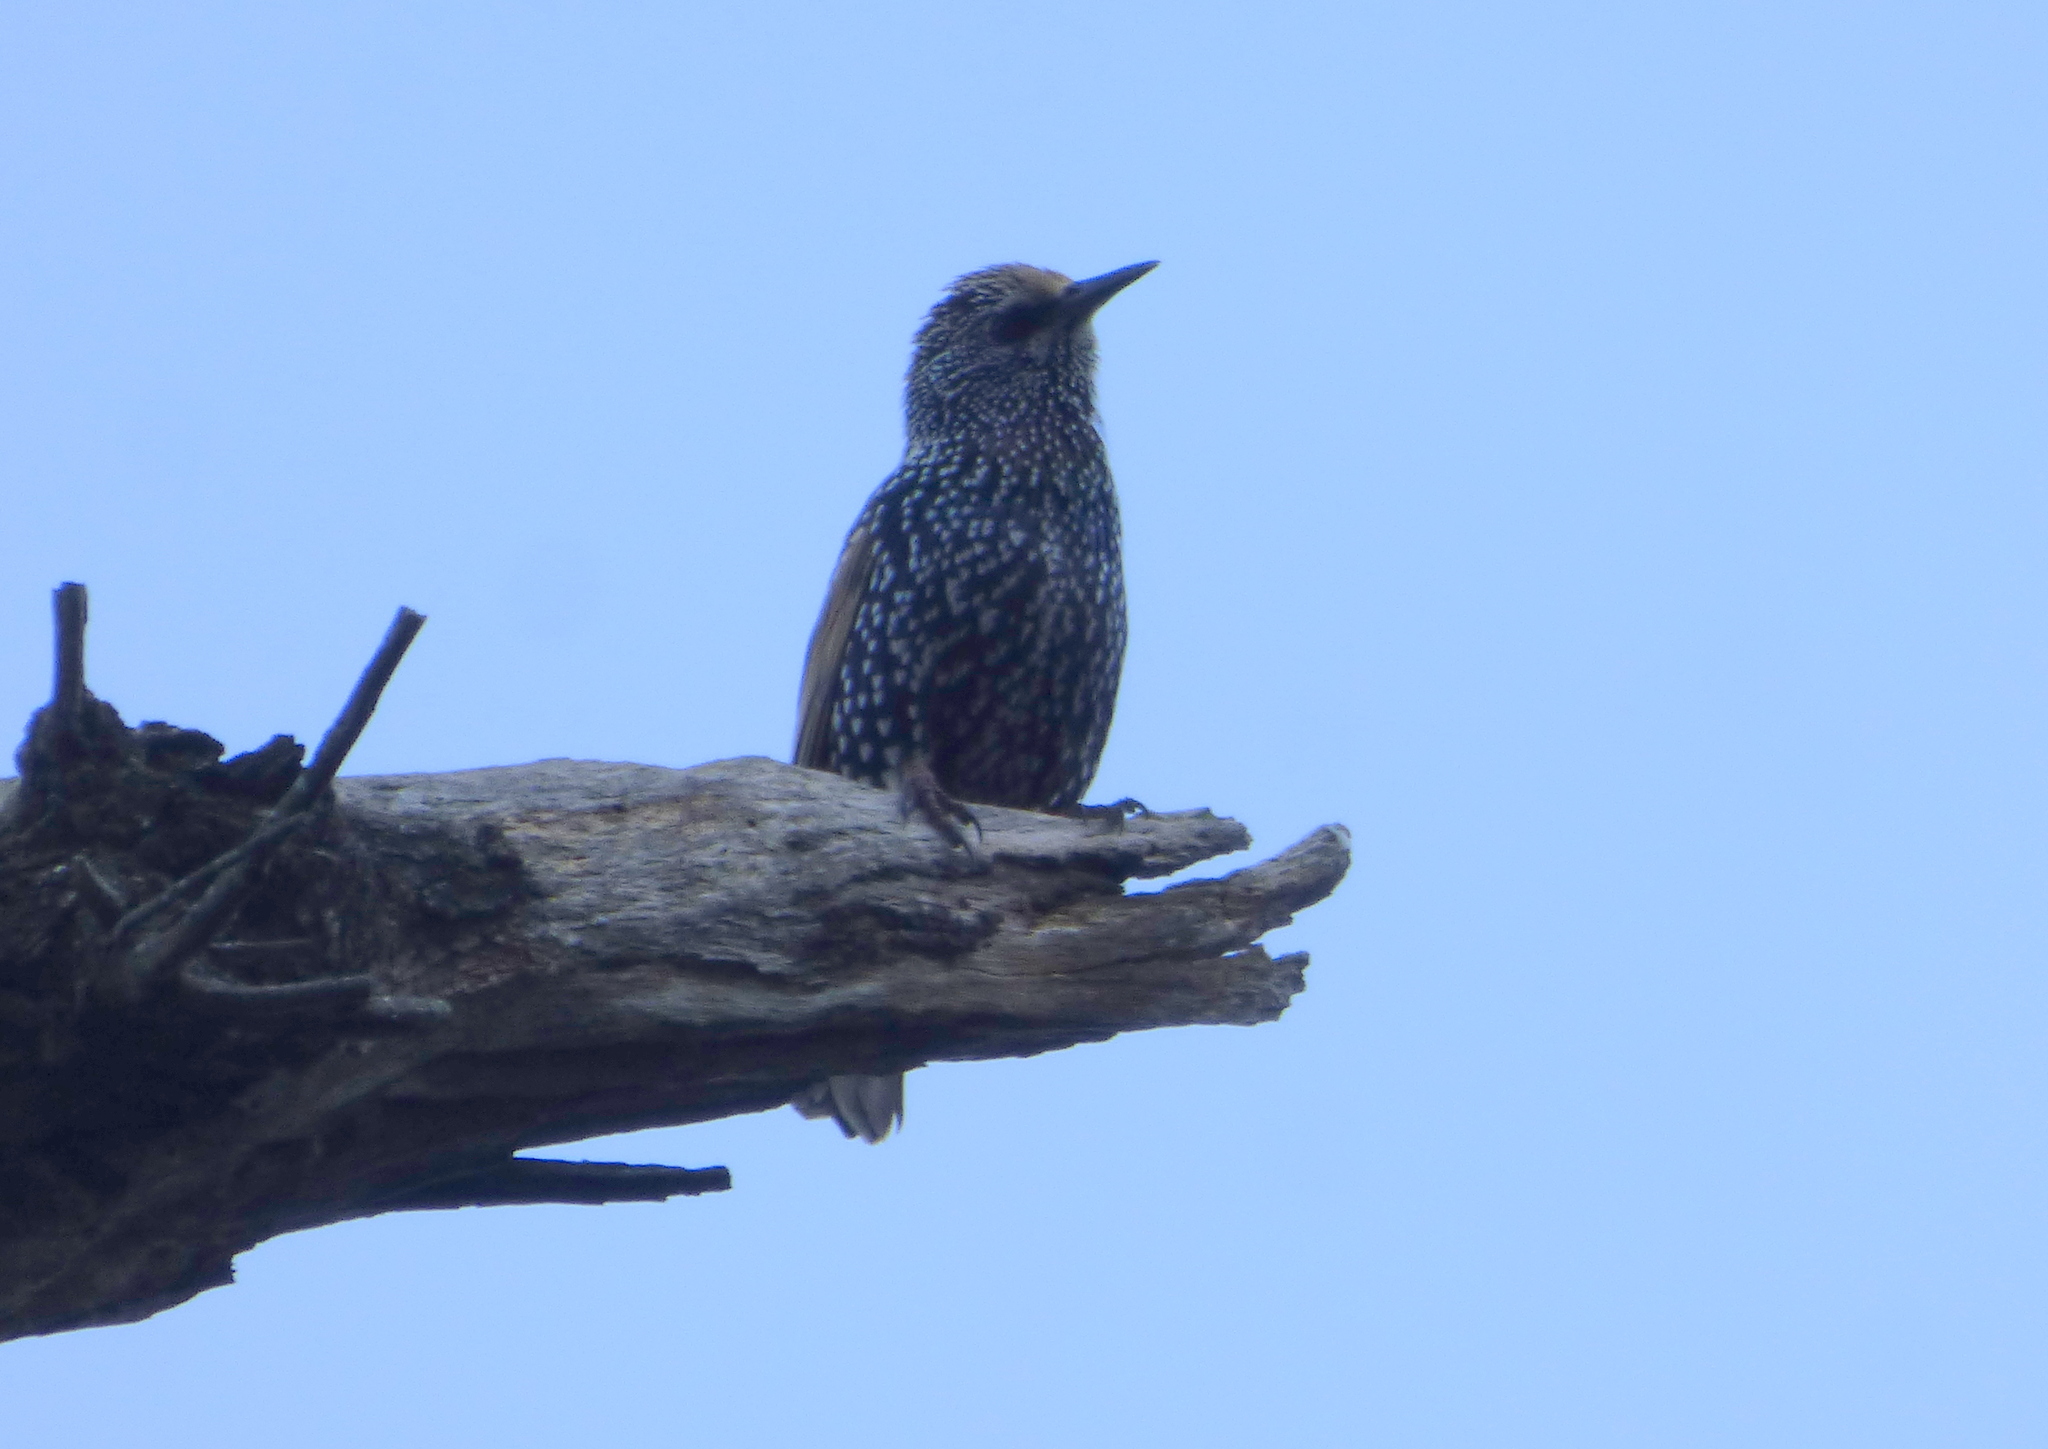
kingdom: Animalia
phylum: Chordata
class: Aves
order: Passeriformes
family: Sturnidae
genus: Sturnus
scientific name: Sturnus vulgaris
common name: Common starling
